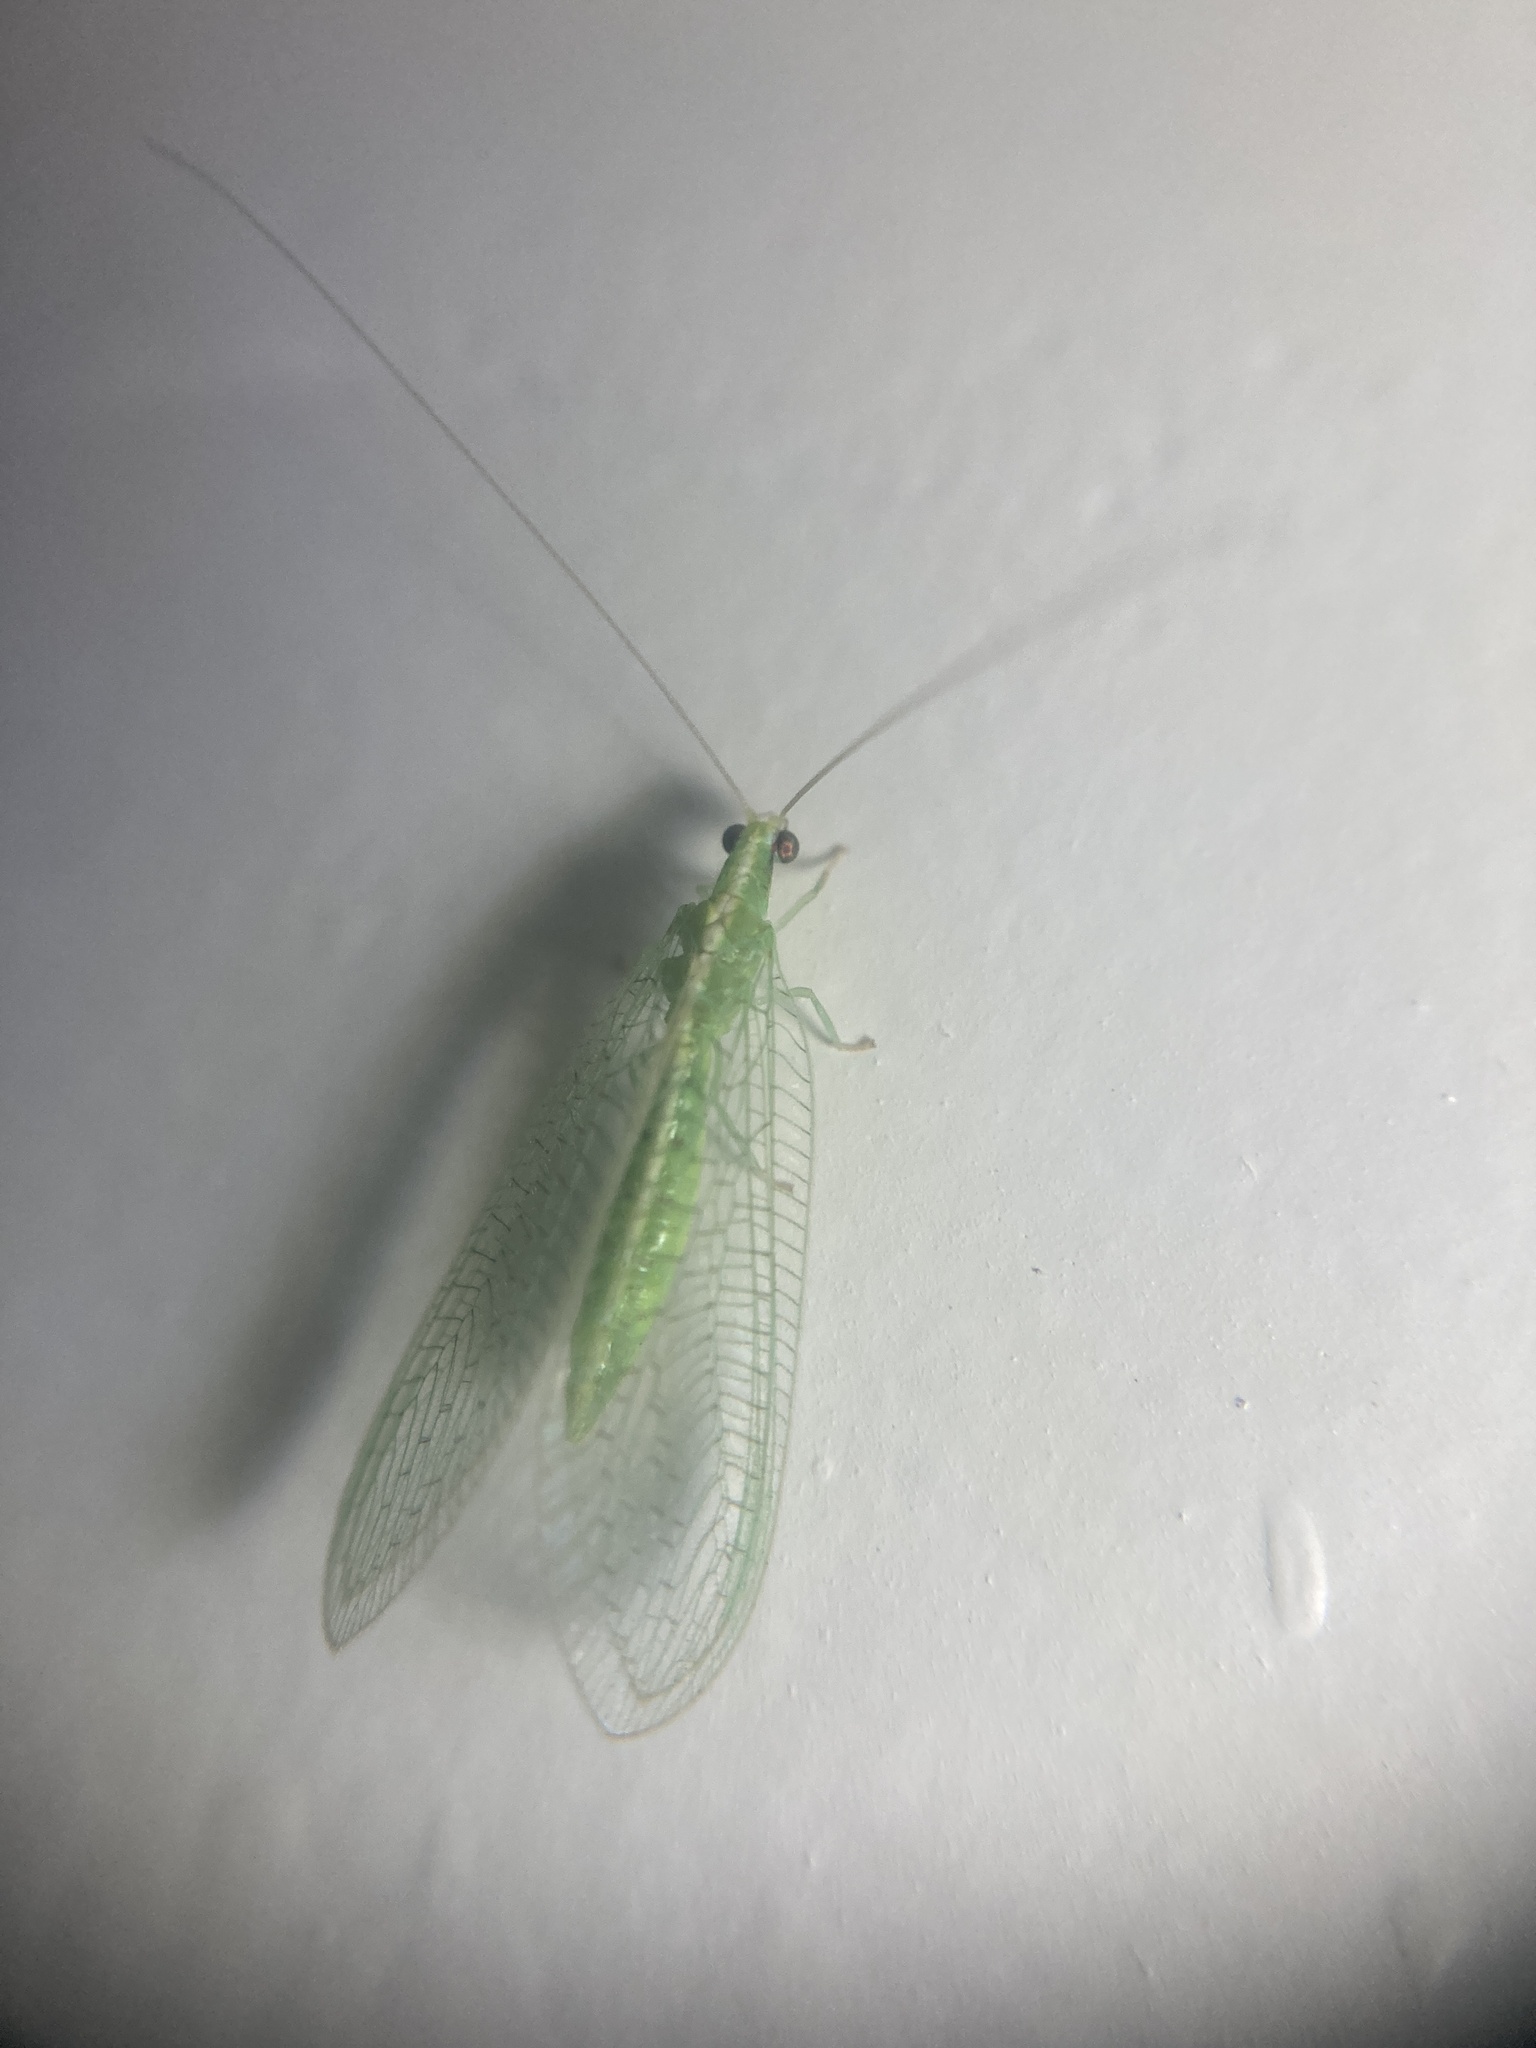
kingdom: Animalia
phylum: Arthropoda
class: Insecta
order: Neuroptera
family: Chrysopidae
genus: Chrysoperla
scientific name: Chrysoperla rufilabris
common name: Red-lipped green lacewing
